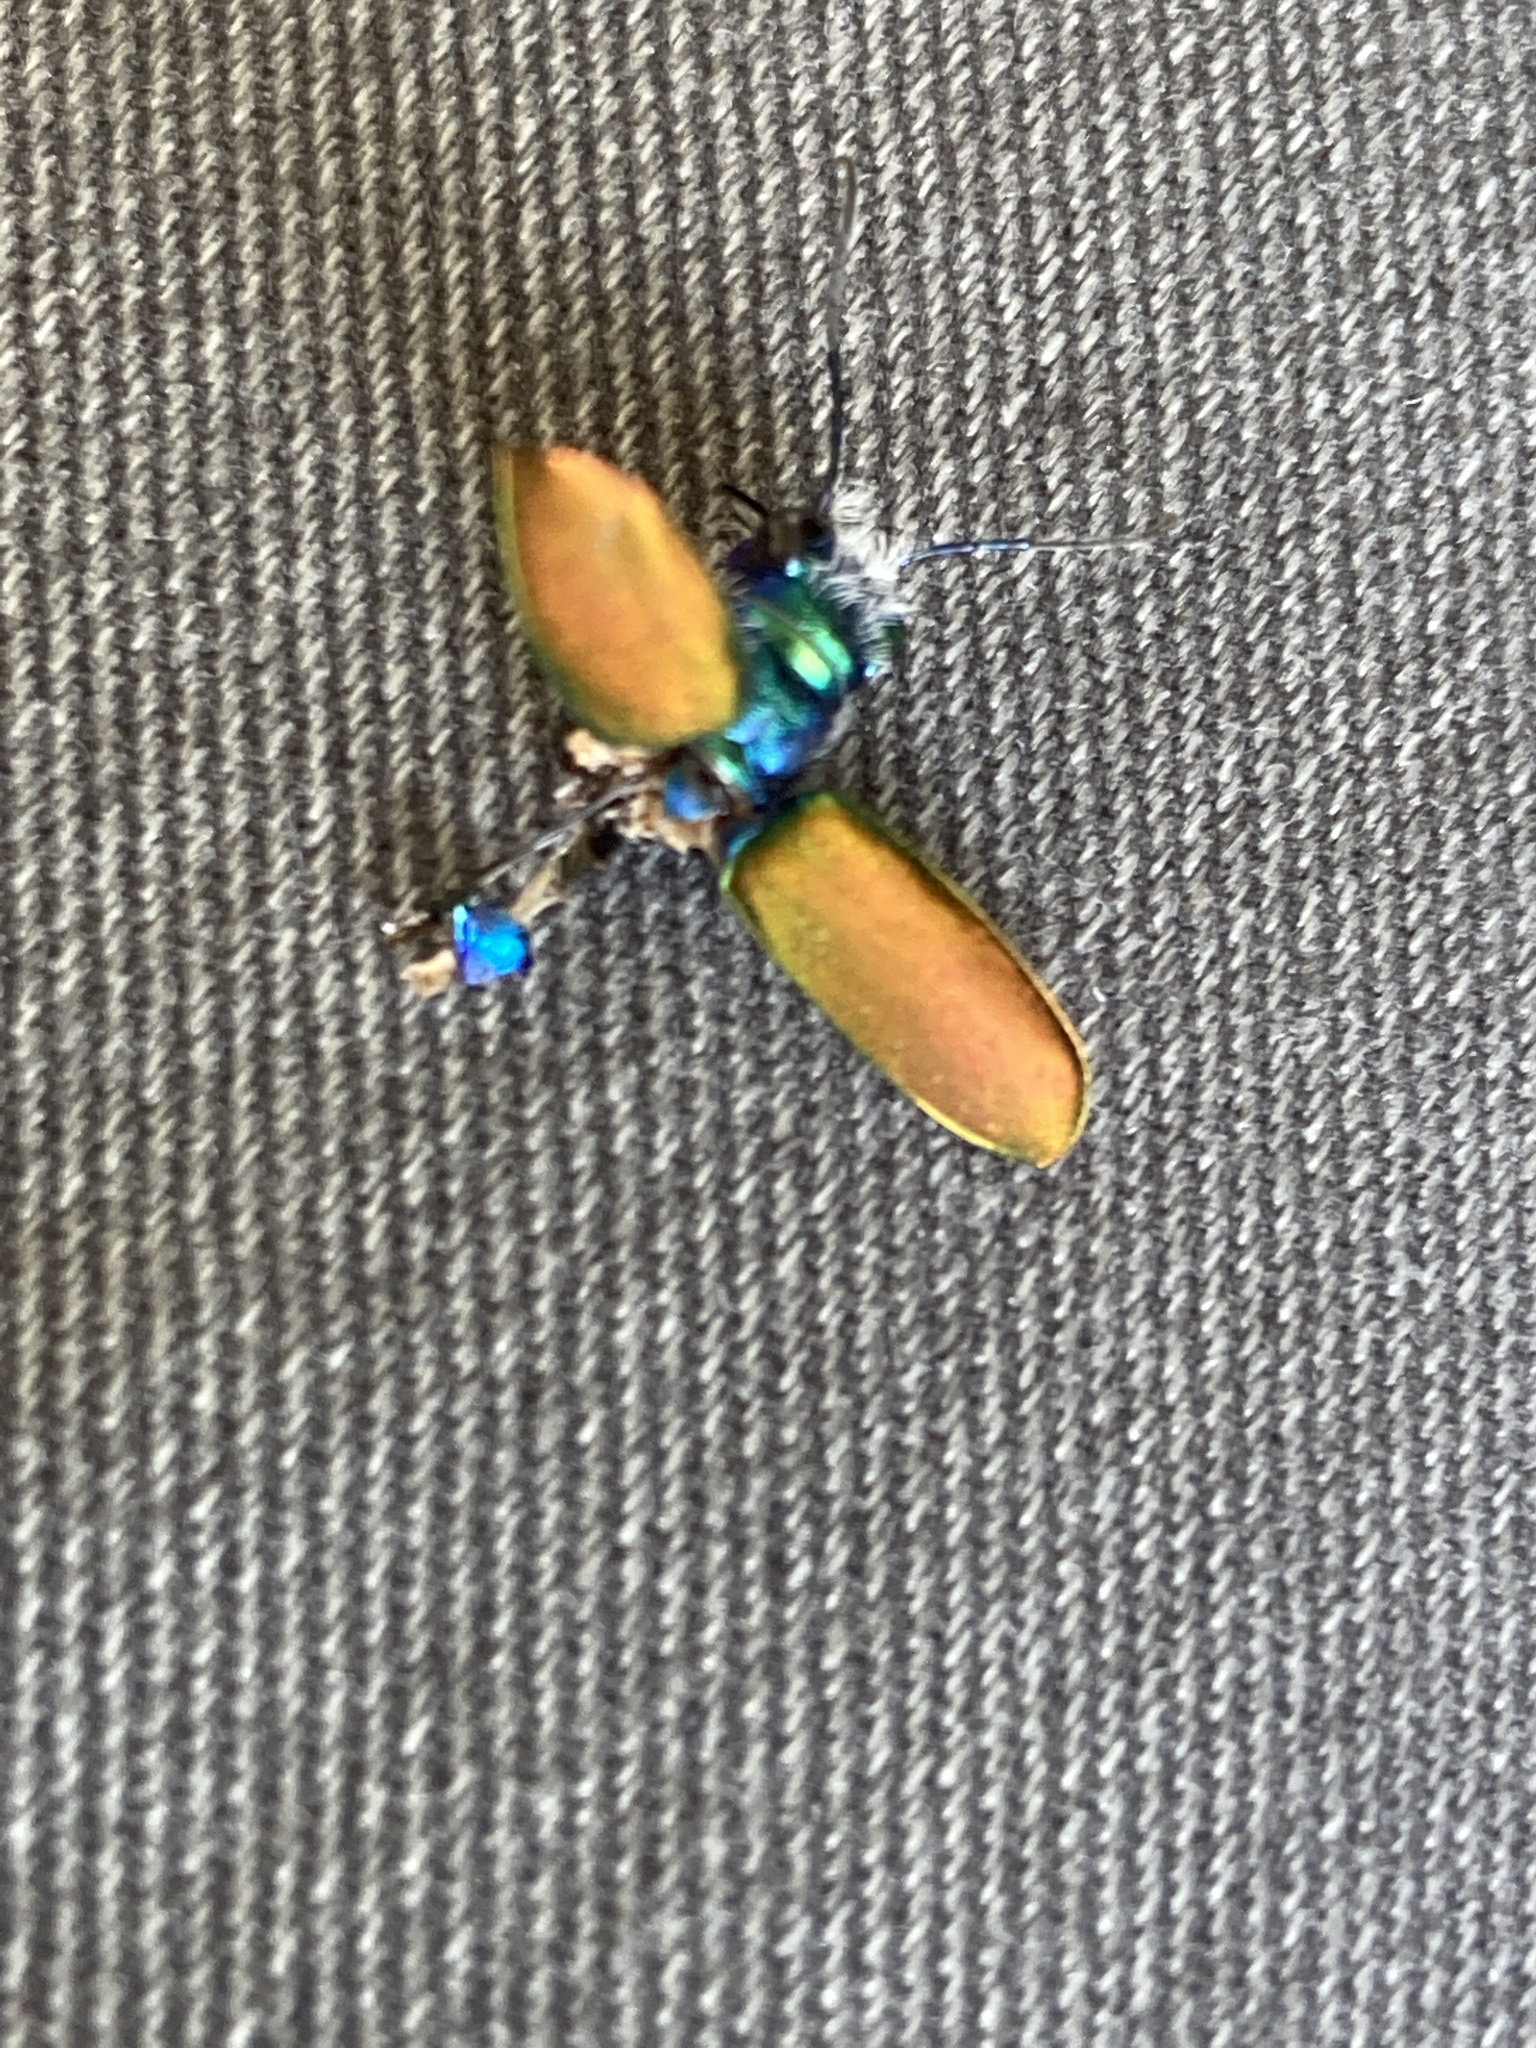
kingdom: Animalia
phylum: Arthropoda
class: Insecta
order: Coleoptera
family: Carabidae
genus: Cicindela
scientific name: Cicindela scutellaris
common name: Festive tiger beetle
